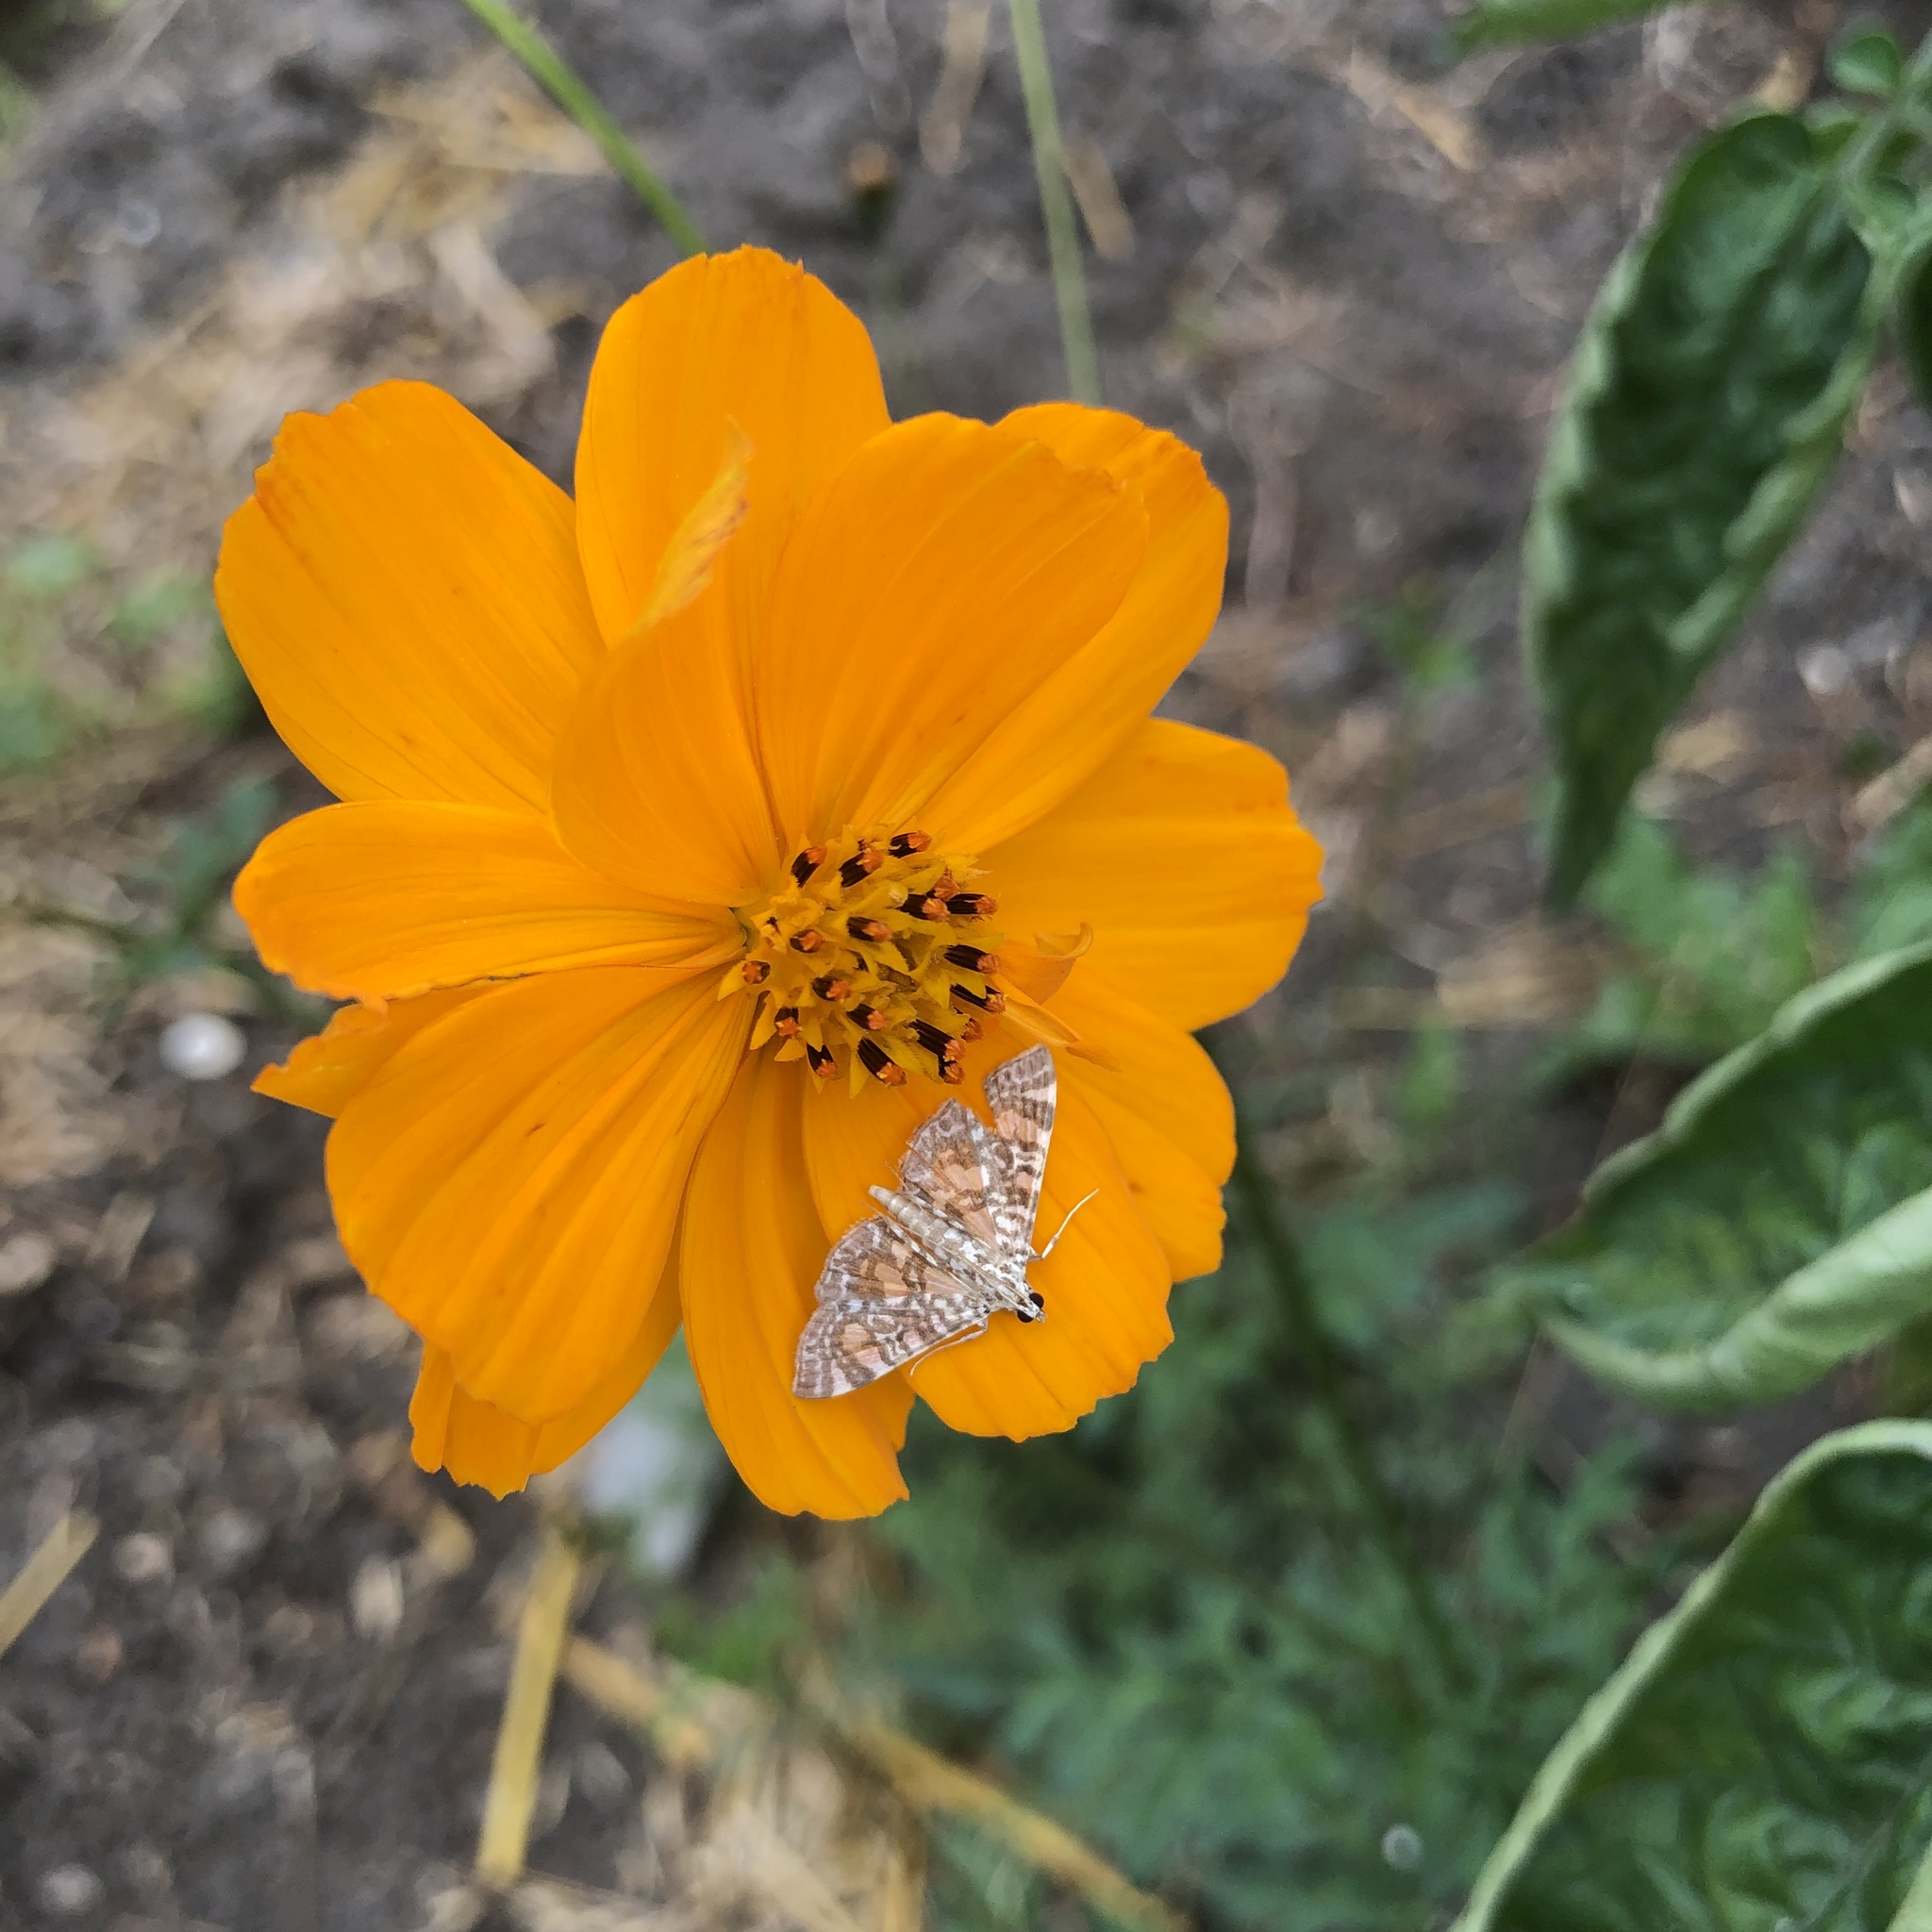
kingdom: Animalia
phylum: Arthropoda
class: Insecta
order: Lepidoptera
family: Crambidae
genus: Glyphodes
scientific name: Glyphodes onychinalis
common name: Swan plant moth
